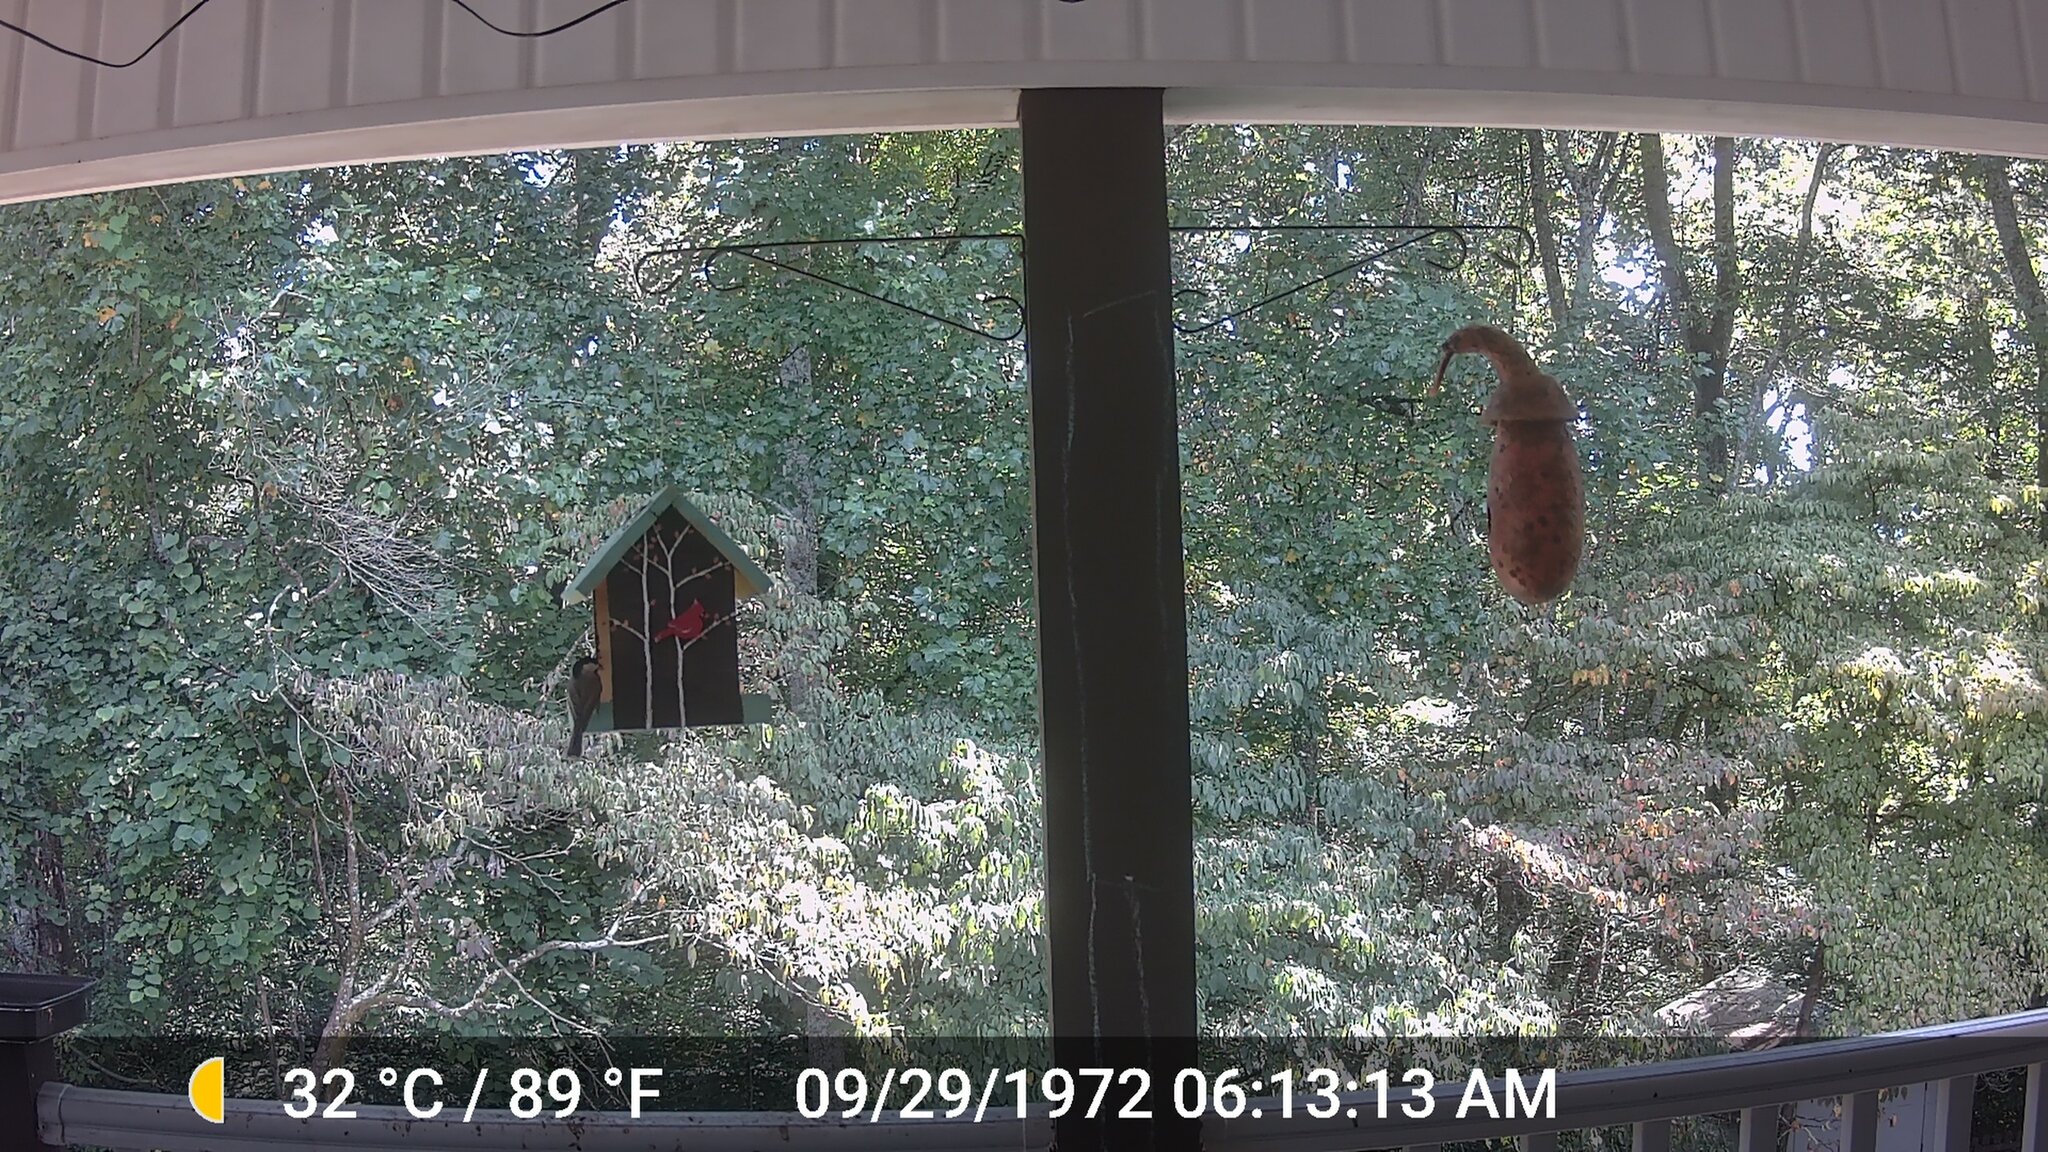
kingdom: Animalia
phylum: Chordata
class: Aves
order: Passeriformes
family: Paridae
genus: Poecile
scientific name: Poecile carolinensis
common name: Carolina chickadee
